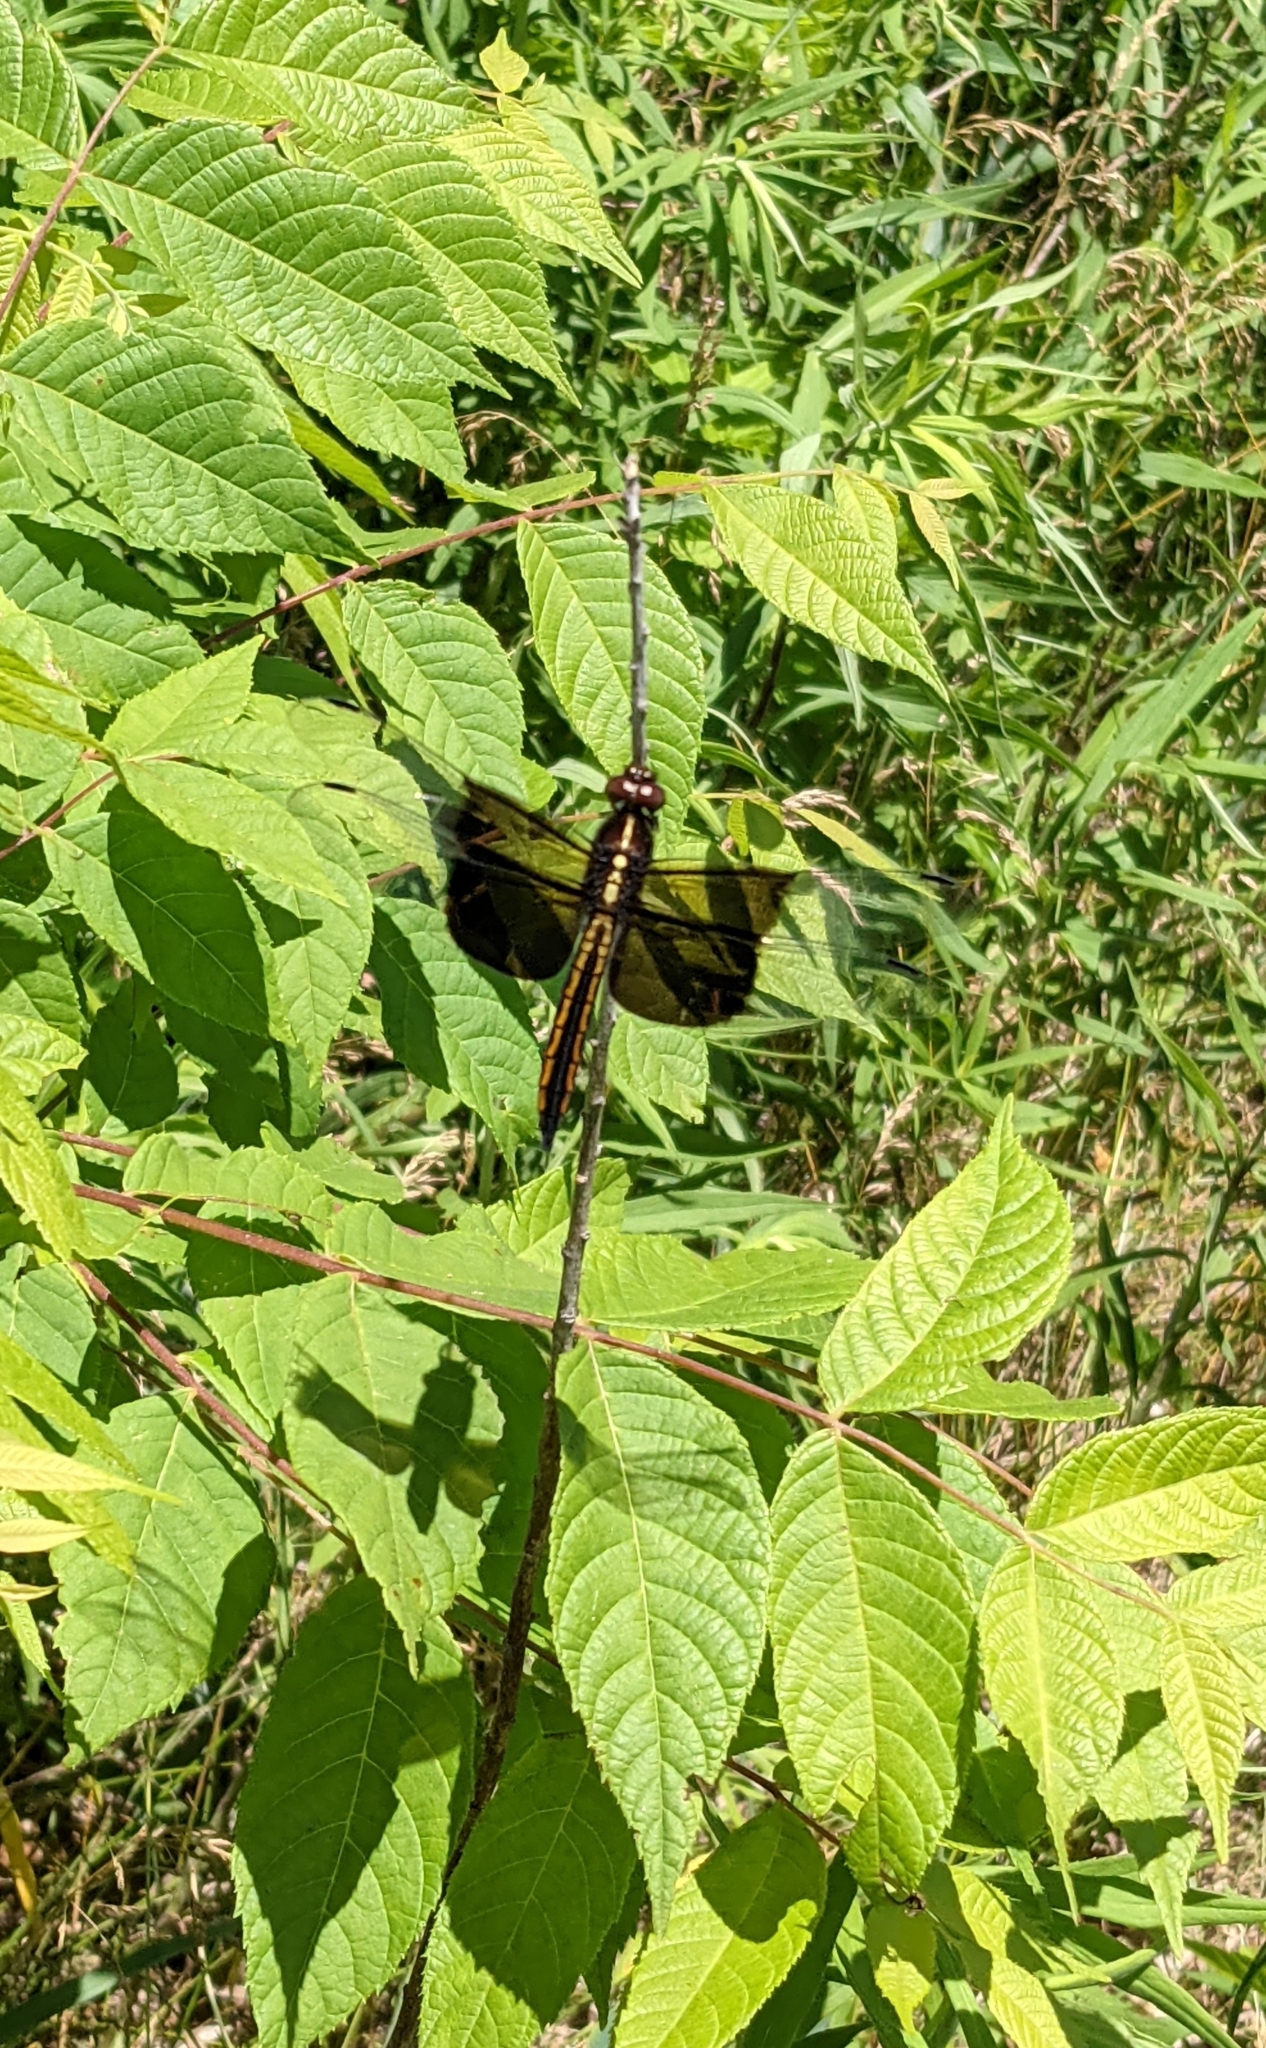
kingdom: Animalia
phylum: Arthropoda
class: Insecta
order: Odonata
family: Libellulidae
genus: Libellula
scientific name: Libellula luctuosa
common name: Widow skimmer
